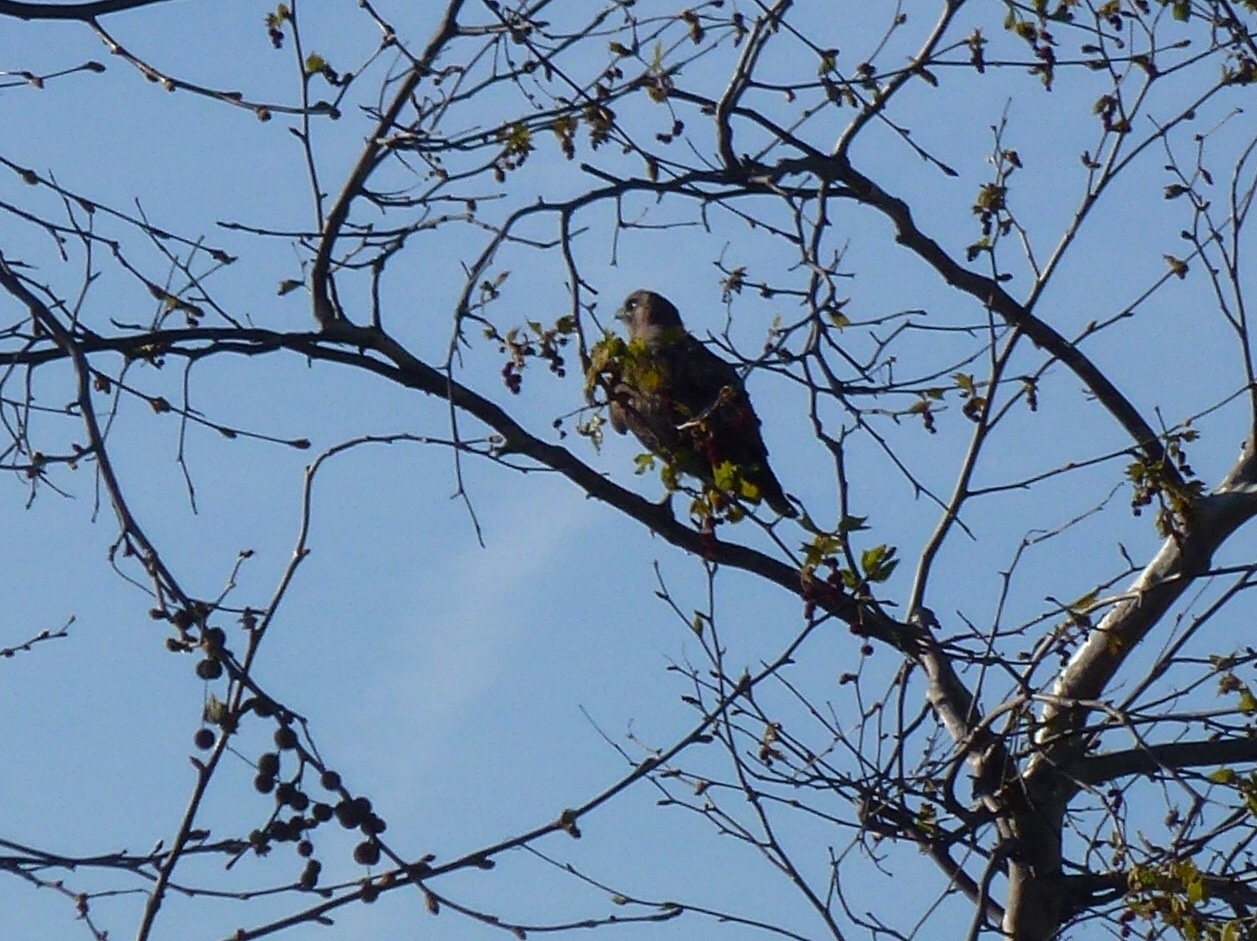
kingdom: Animalia
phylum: Chordata
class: Aves
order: Accipitriformes
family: Accipitridae
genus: Buteo
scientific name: Buteo jamaicensis
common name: Red-tailed hawk
